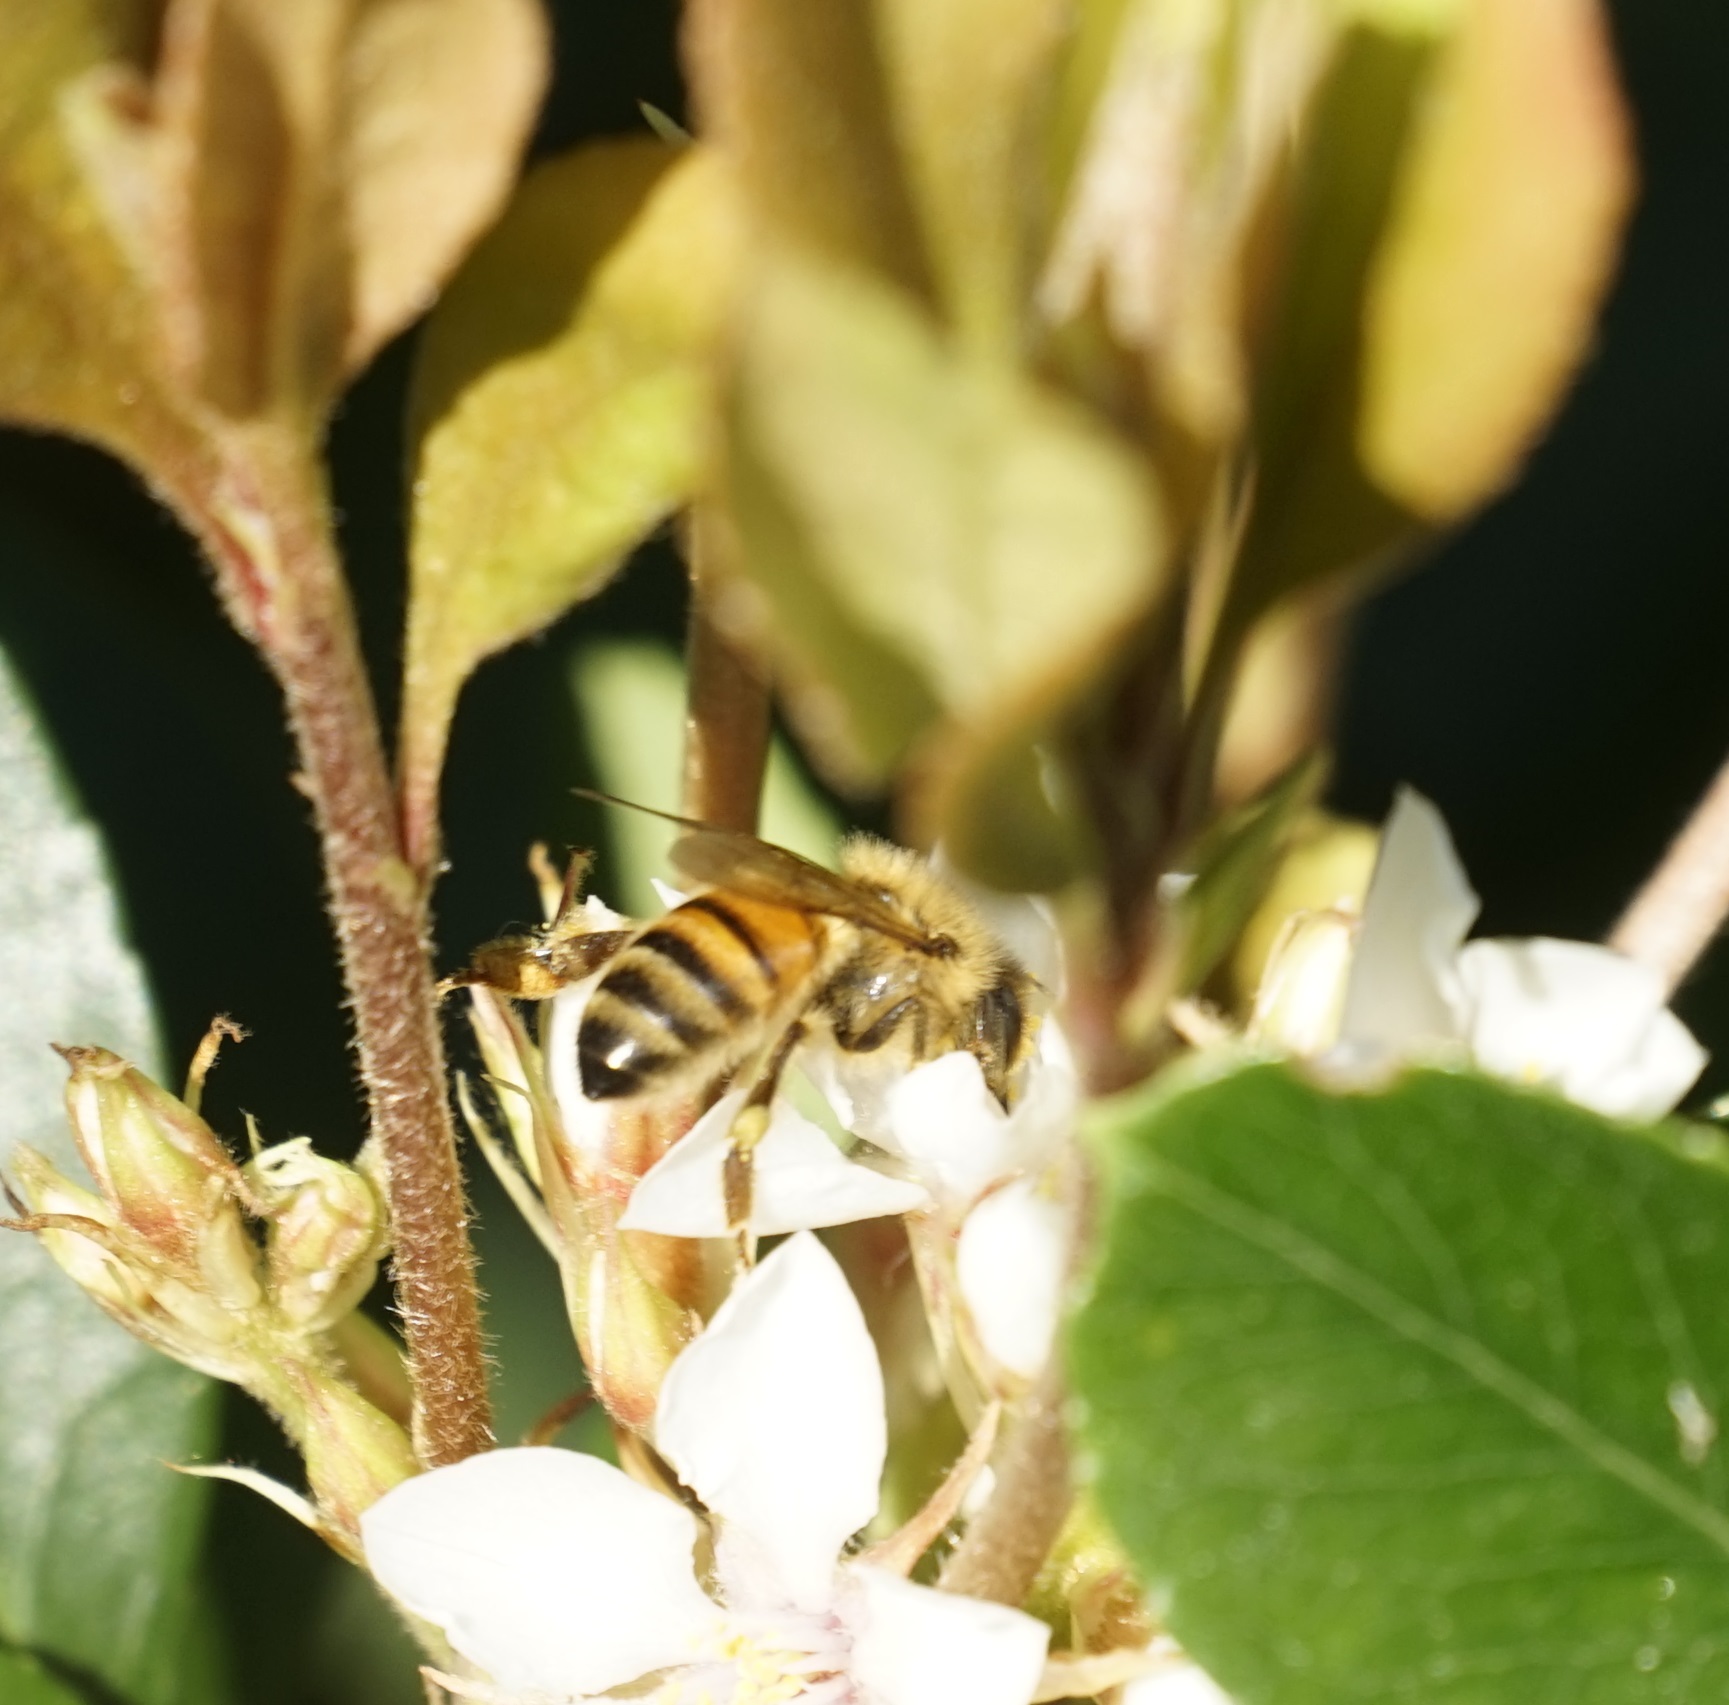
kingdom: Animalia
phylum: Arthropoda
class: Insecta
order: Hymenoptera
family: Apidae
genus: Apis
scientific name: Apis mellifera
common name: Honey bee
